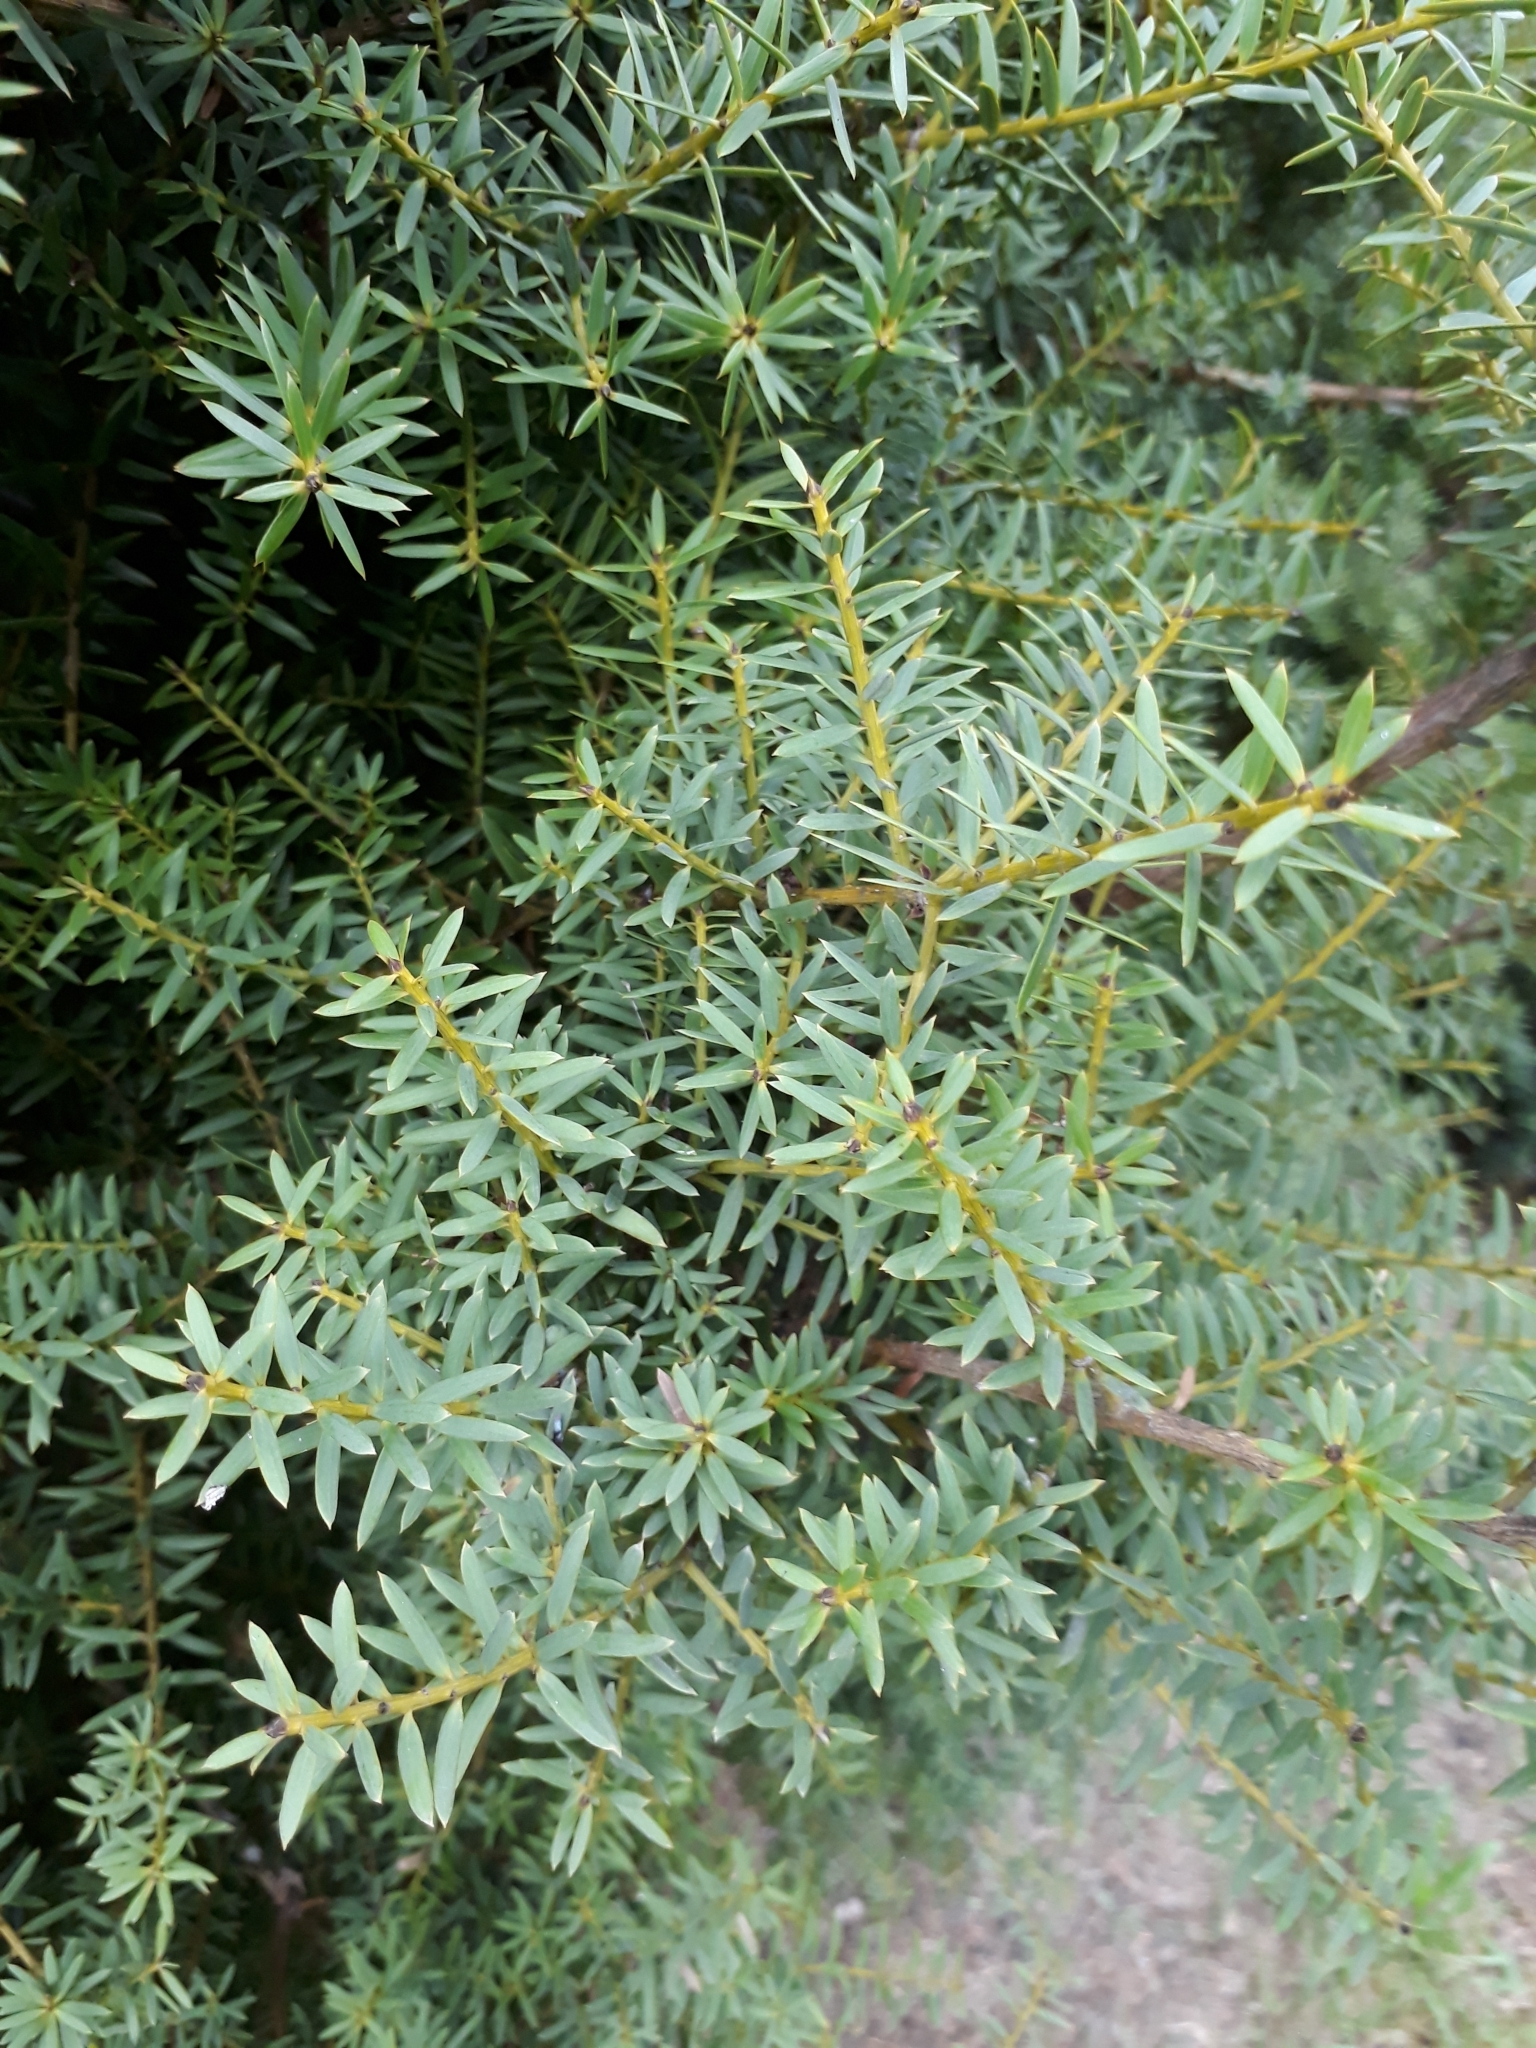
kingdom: Plantae
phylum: Tracheophyta
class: Pinopsida
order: Pinales
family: Podocarpaceae
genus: Podocarpus
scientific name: Podocarpus totara
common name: Totara
